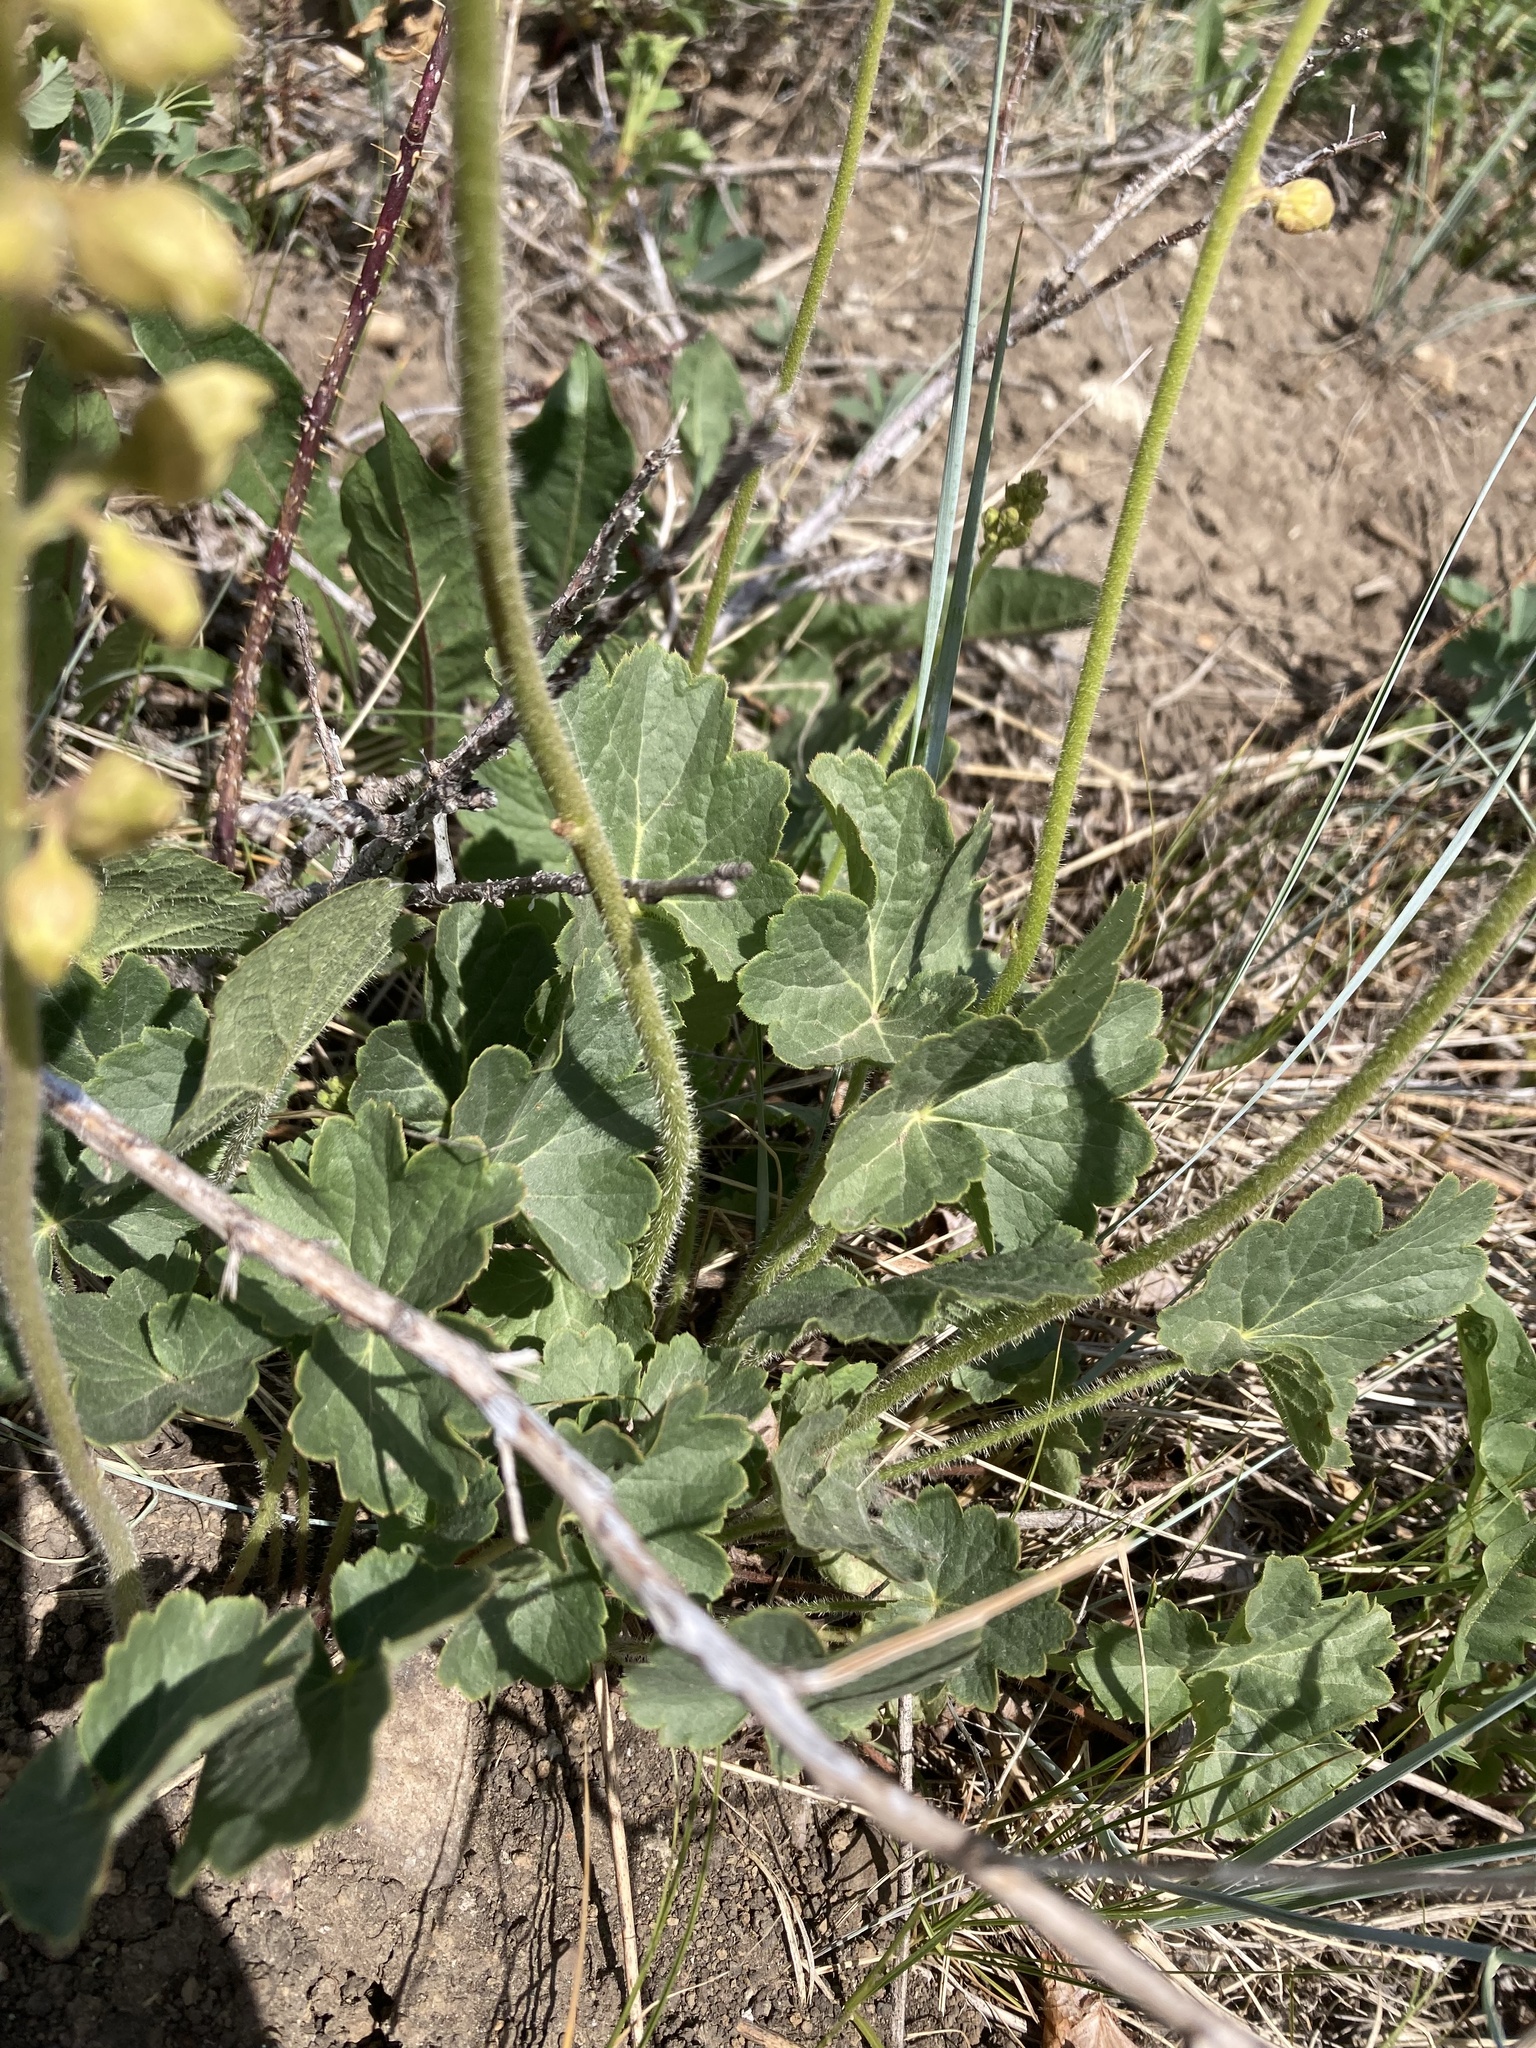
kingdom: Plantae
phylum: Tracheophyta
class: Magnoliopsida
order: Saxifragales
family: Saxifragaceae
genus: Heuchera
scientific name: Heuchera richardsonii
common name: Richardson's alumroot
